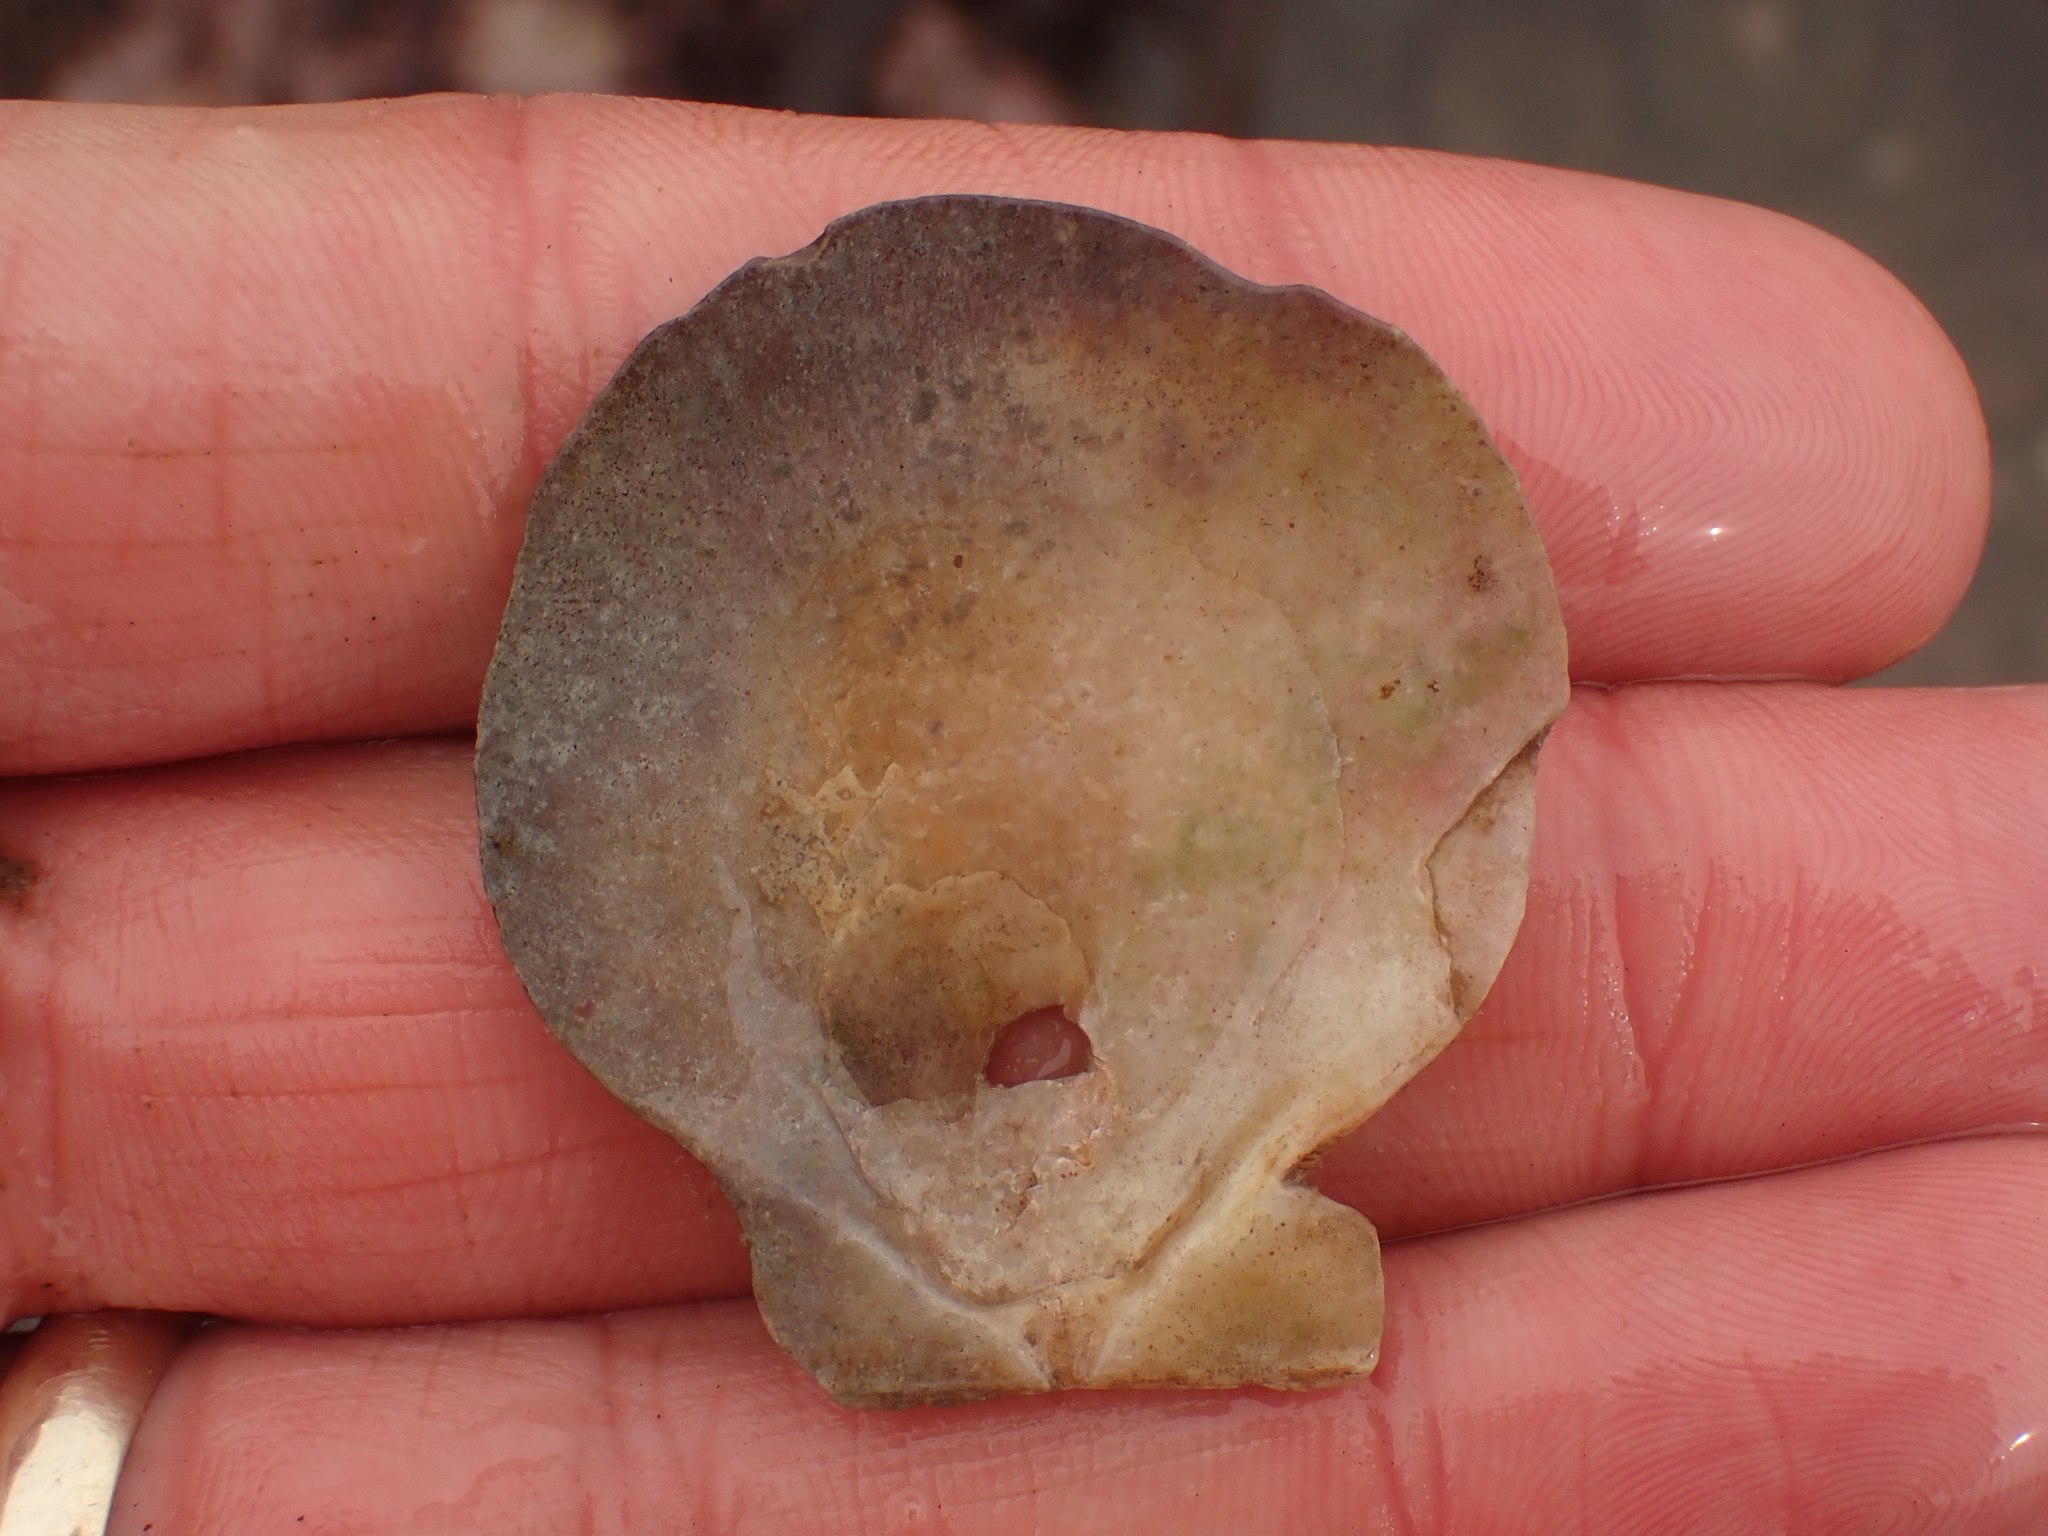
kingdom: Animalia
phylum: Mollusca
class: Bivalvia
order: Pectinida
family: Pectinidae
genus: Placopecten
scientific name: Placopecten magellanicus
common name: American sea scallop
